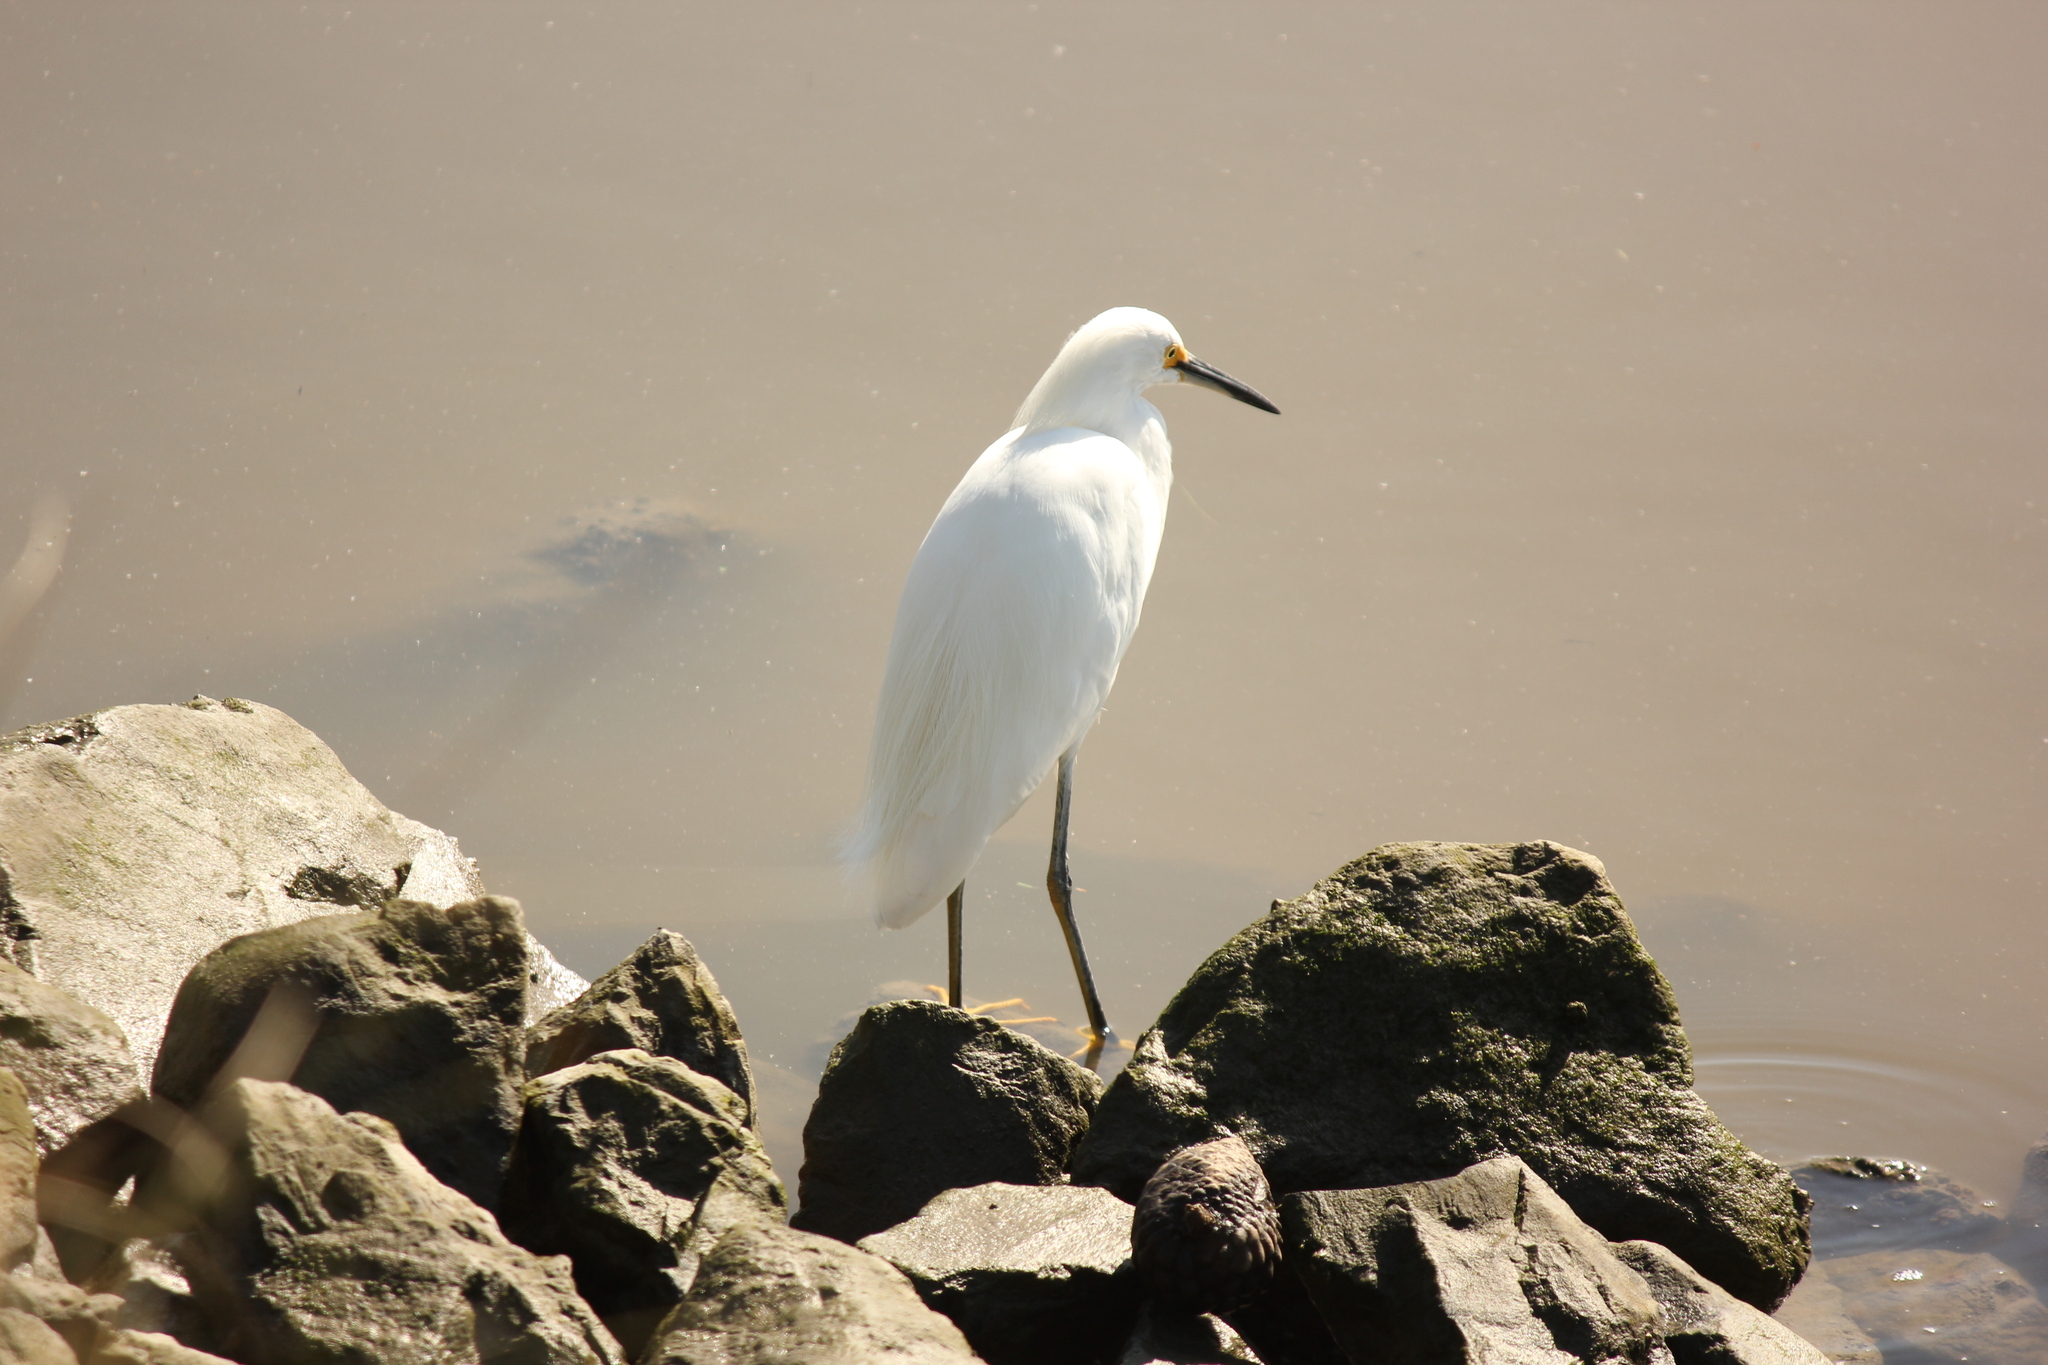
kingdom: Animalia
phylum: Chordata
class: Aves
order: Pelecaniformes
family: Ardeidae
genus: Egretta
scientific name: Egretta thula
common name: Snowy egret
